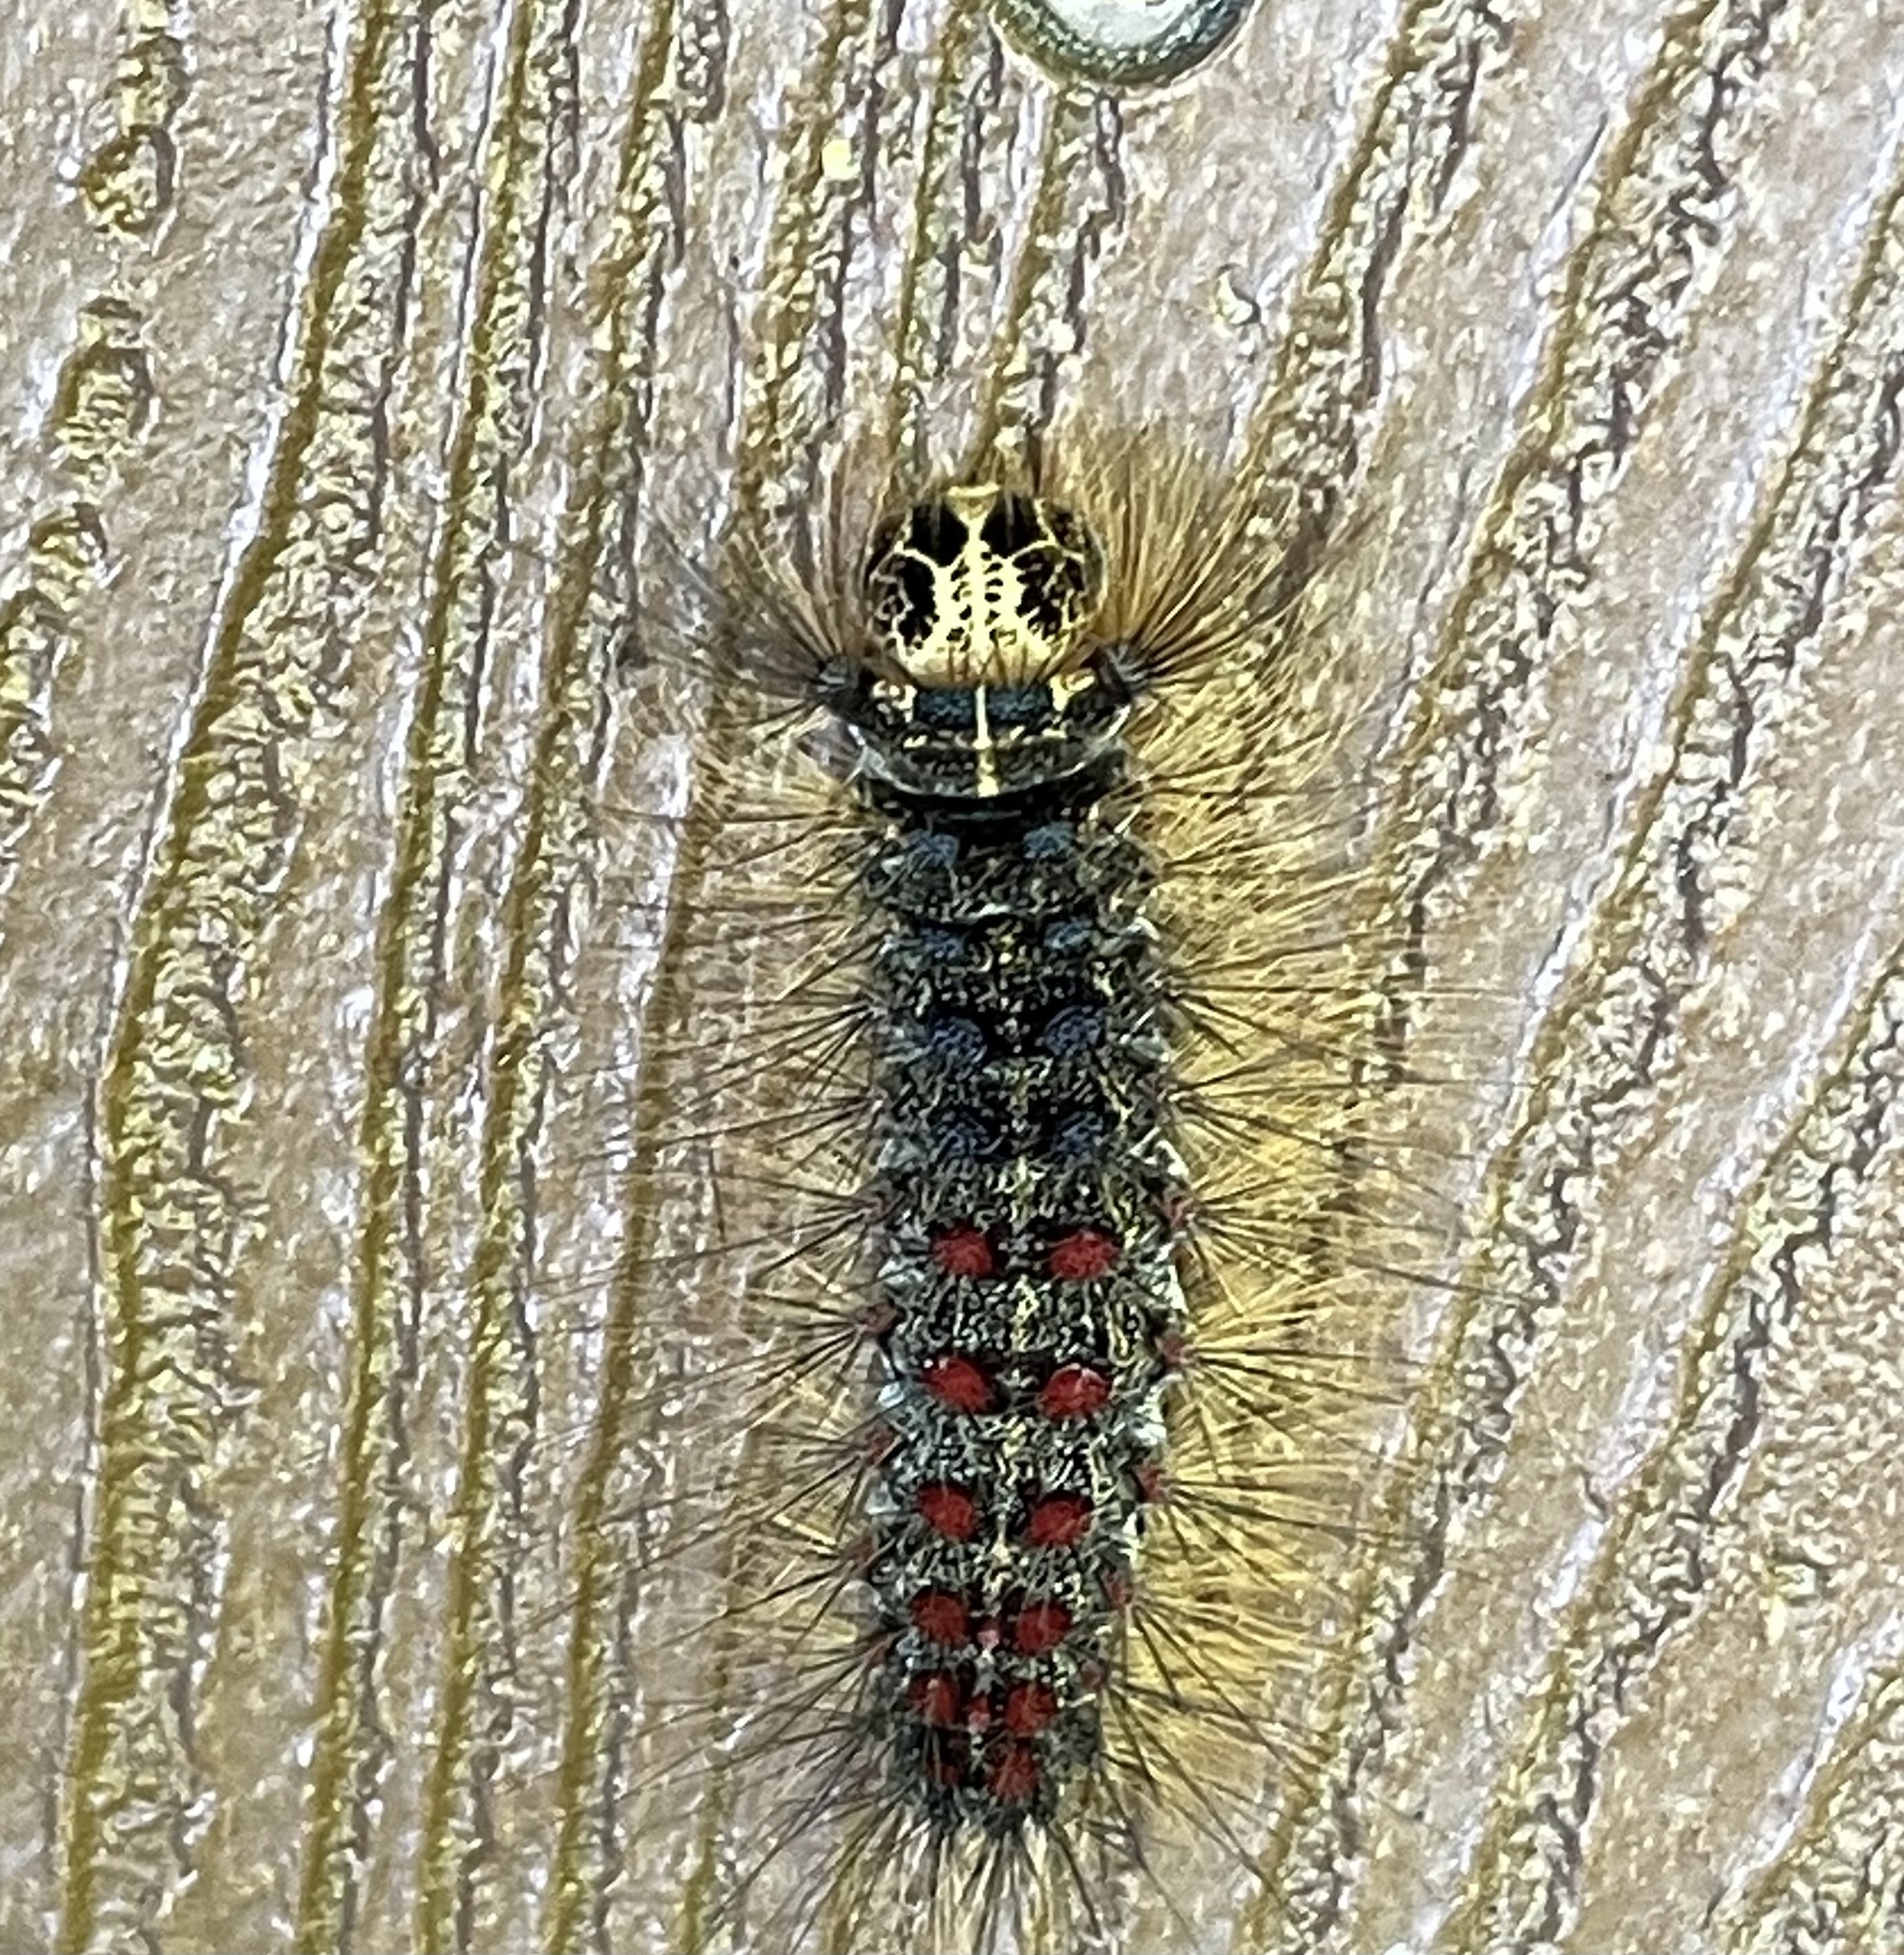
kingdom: Animalia
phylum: Arthropoda
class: Insecta
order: Lepidoptera
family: Erebidae
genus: Lymantria
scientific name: Lymantria dispar
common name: Gypsy moth
